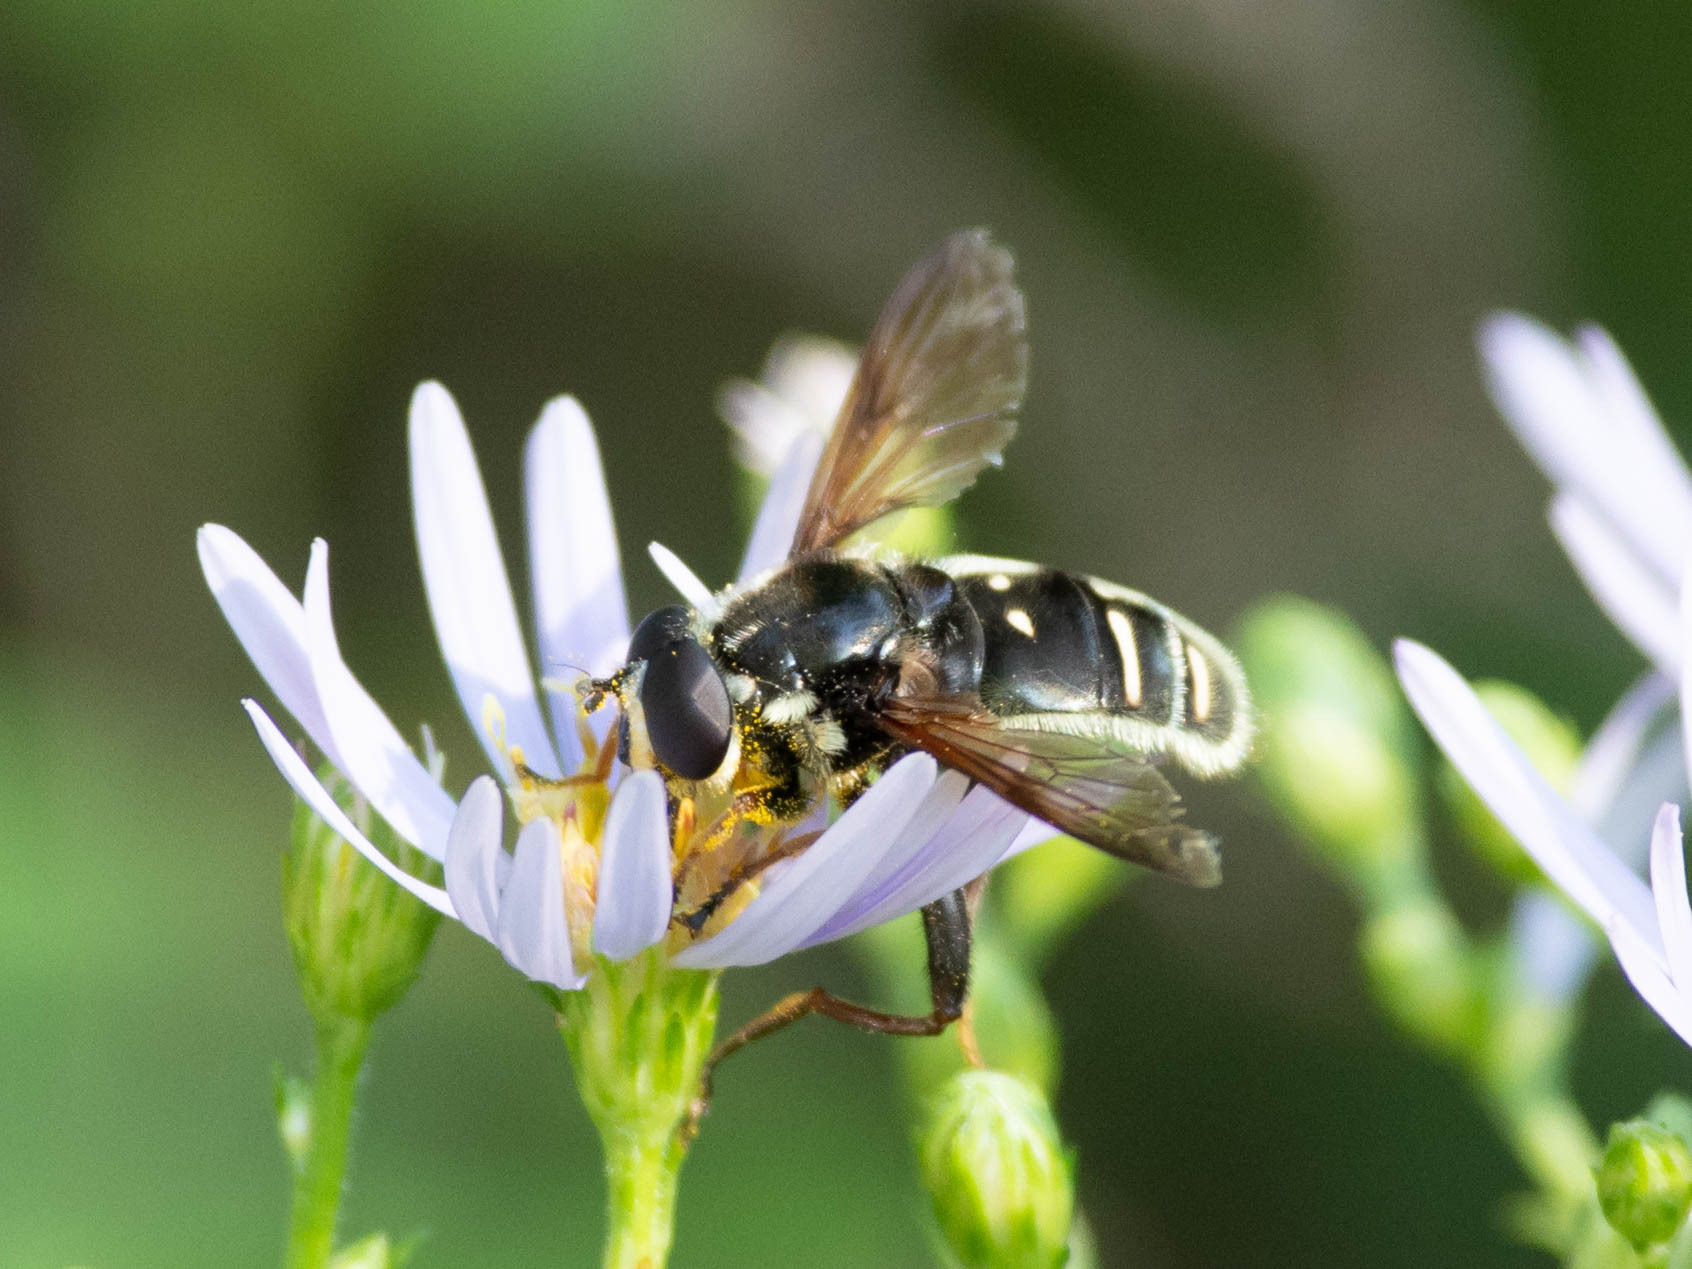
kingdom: Animalia
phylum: Arthropoda
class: Insecta
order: Diptera
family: Syrphidae
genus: Sericomyia
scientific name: Sericomyia militaris
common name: Narrow-banded pond fly
